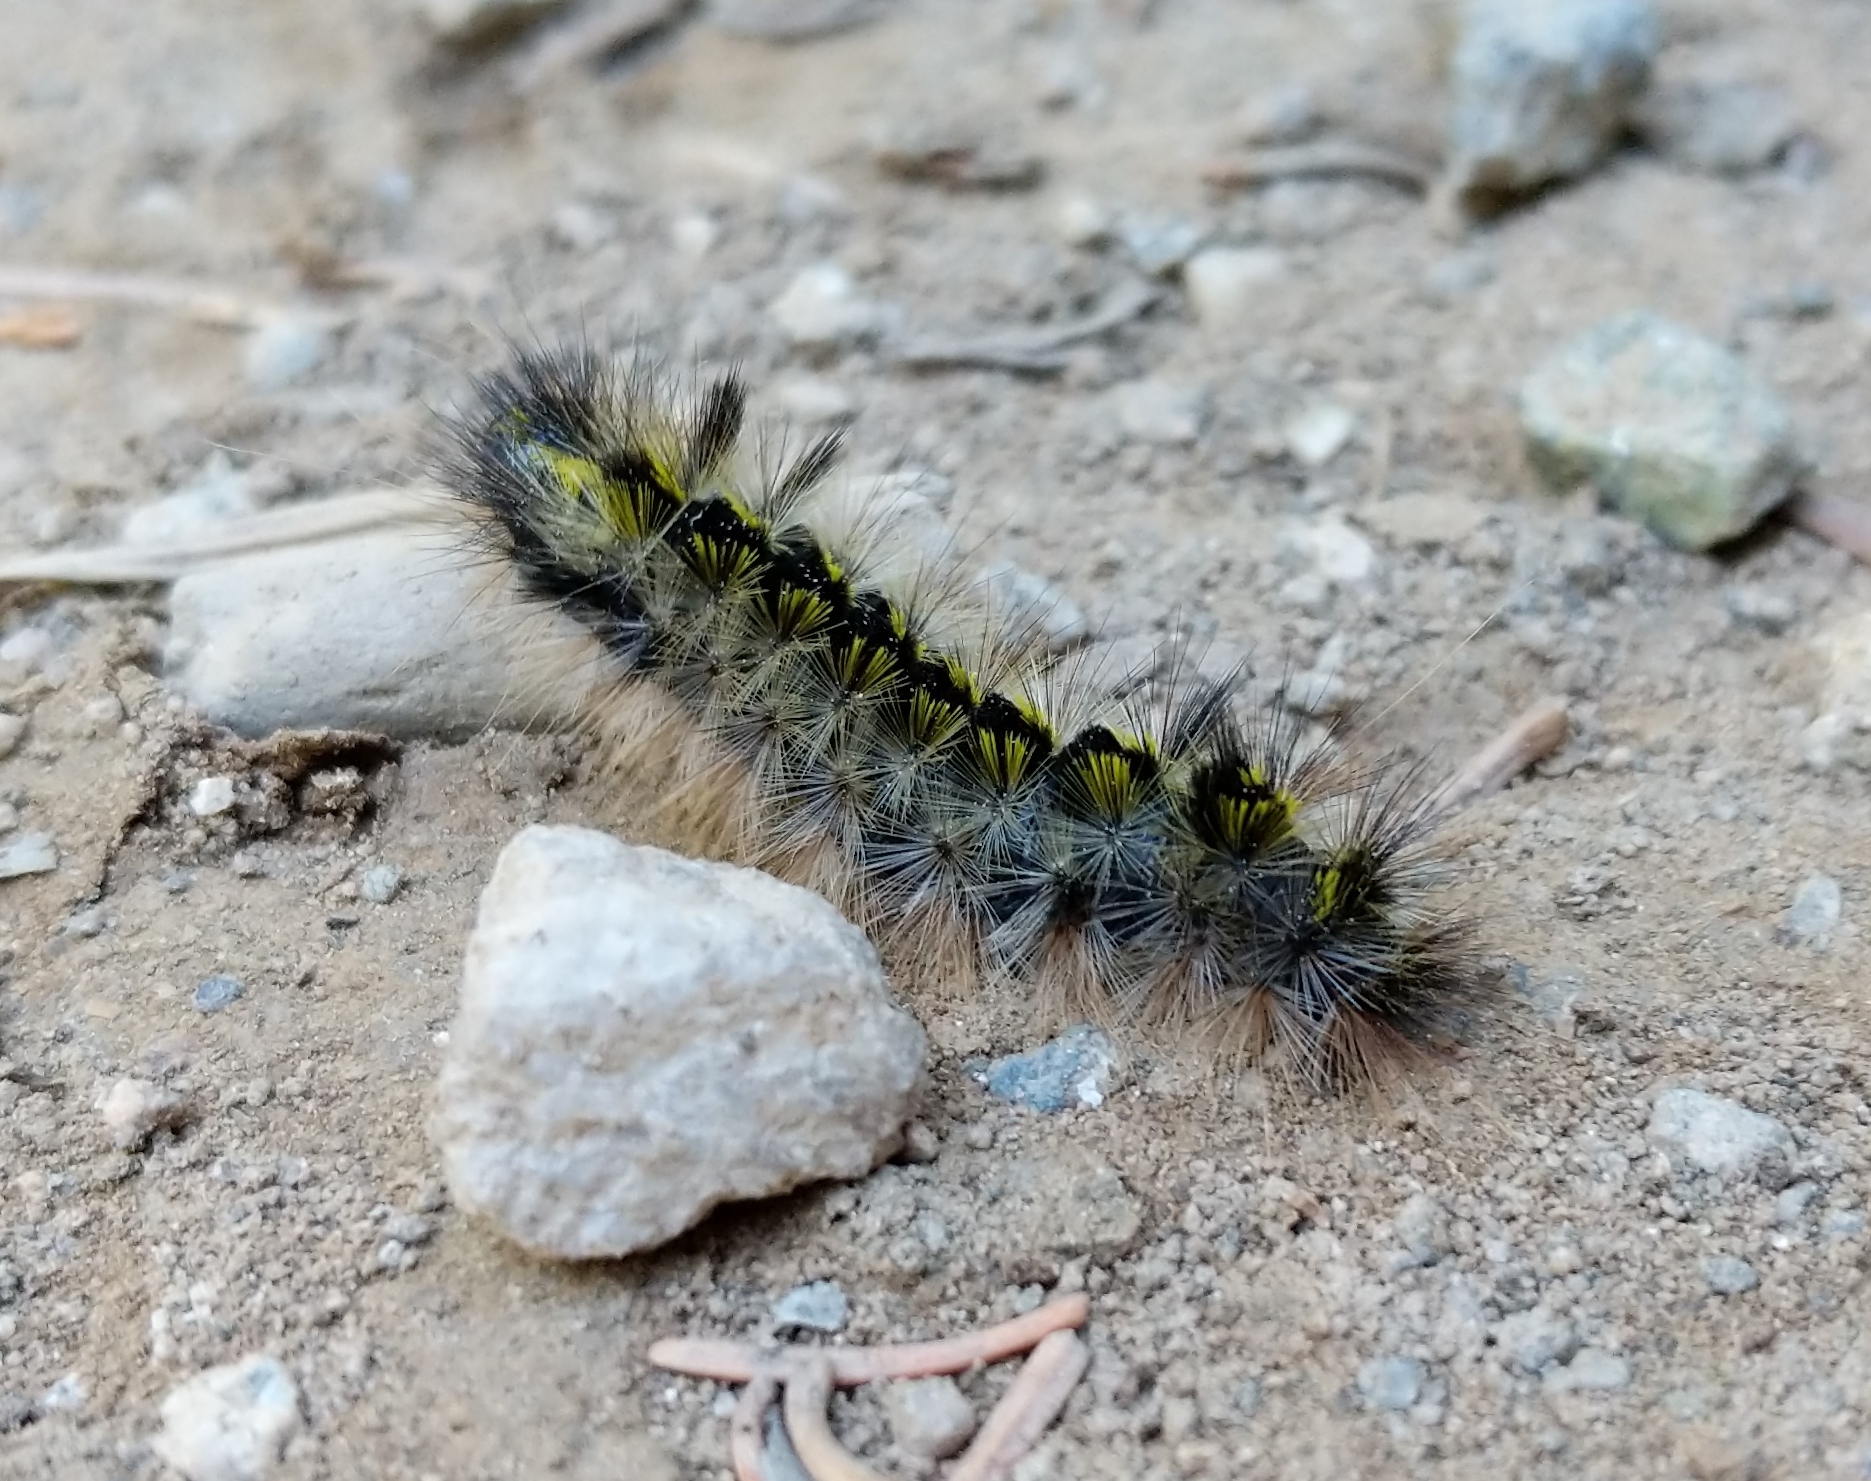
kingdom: Animalia
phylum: Arthropoda
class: Insecta
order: Lepidoptera
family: Erebidae
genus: Lophocampa
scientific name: Lophocampa argentata
